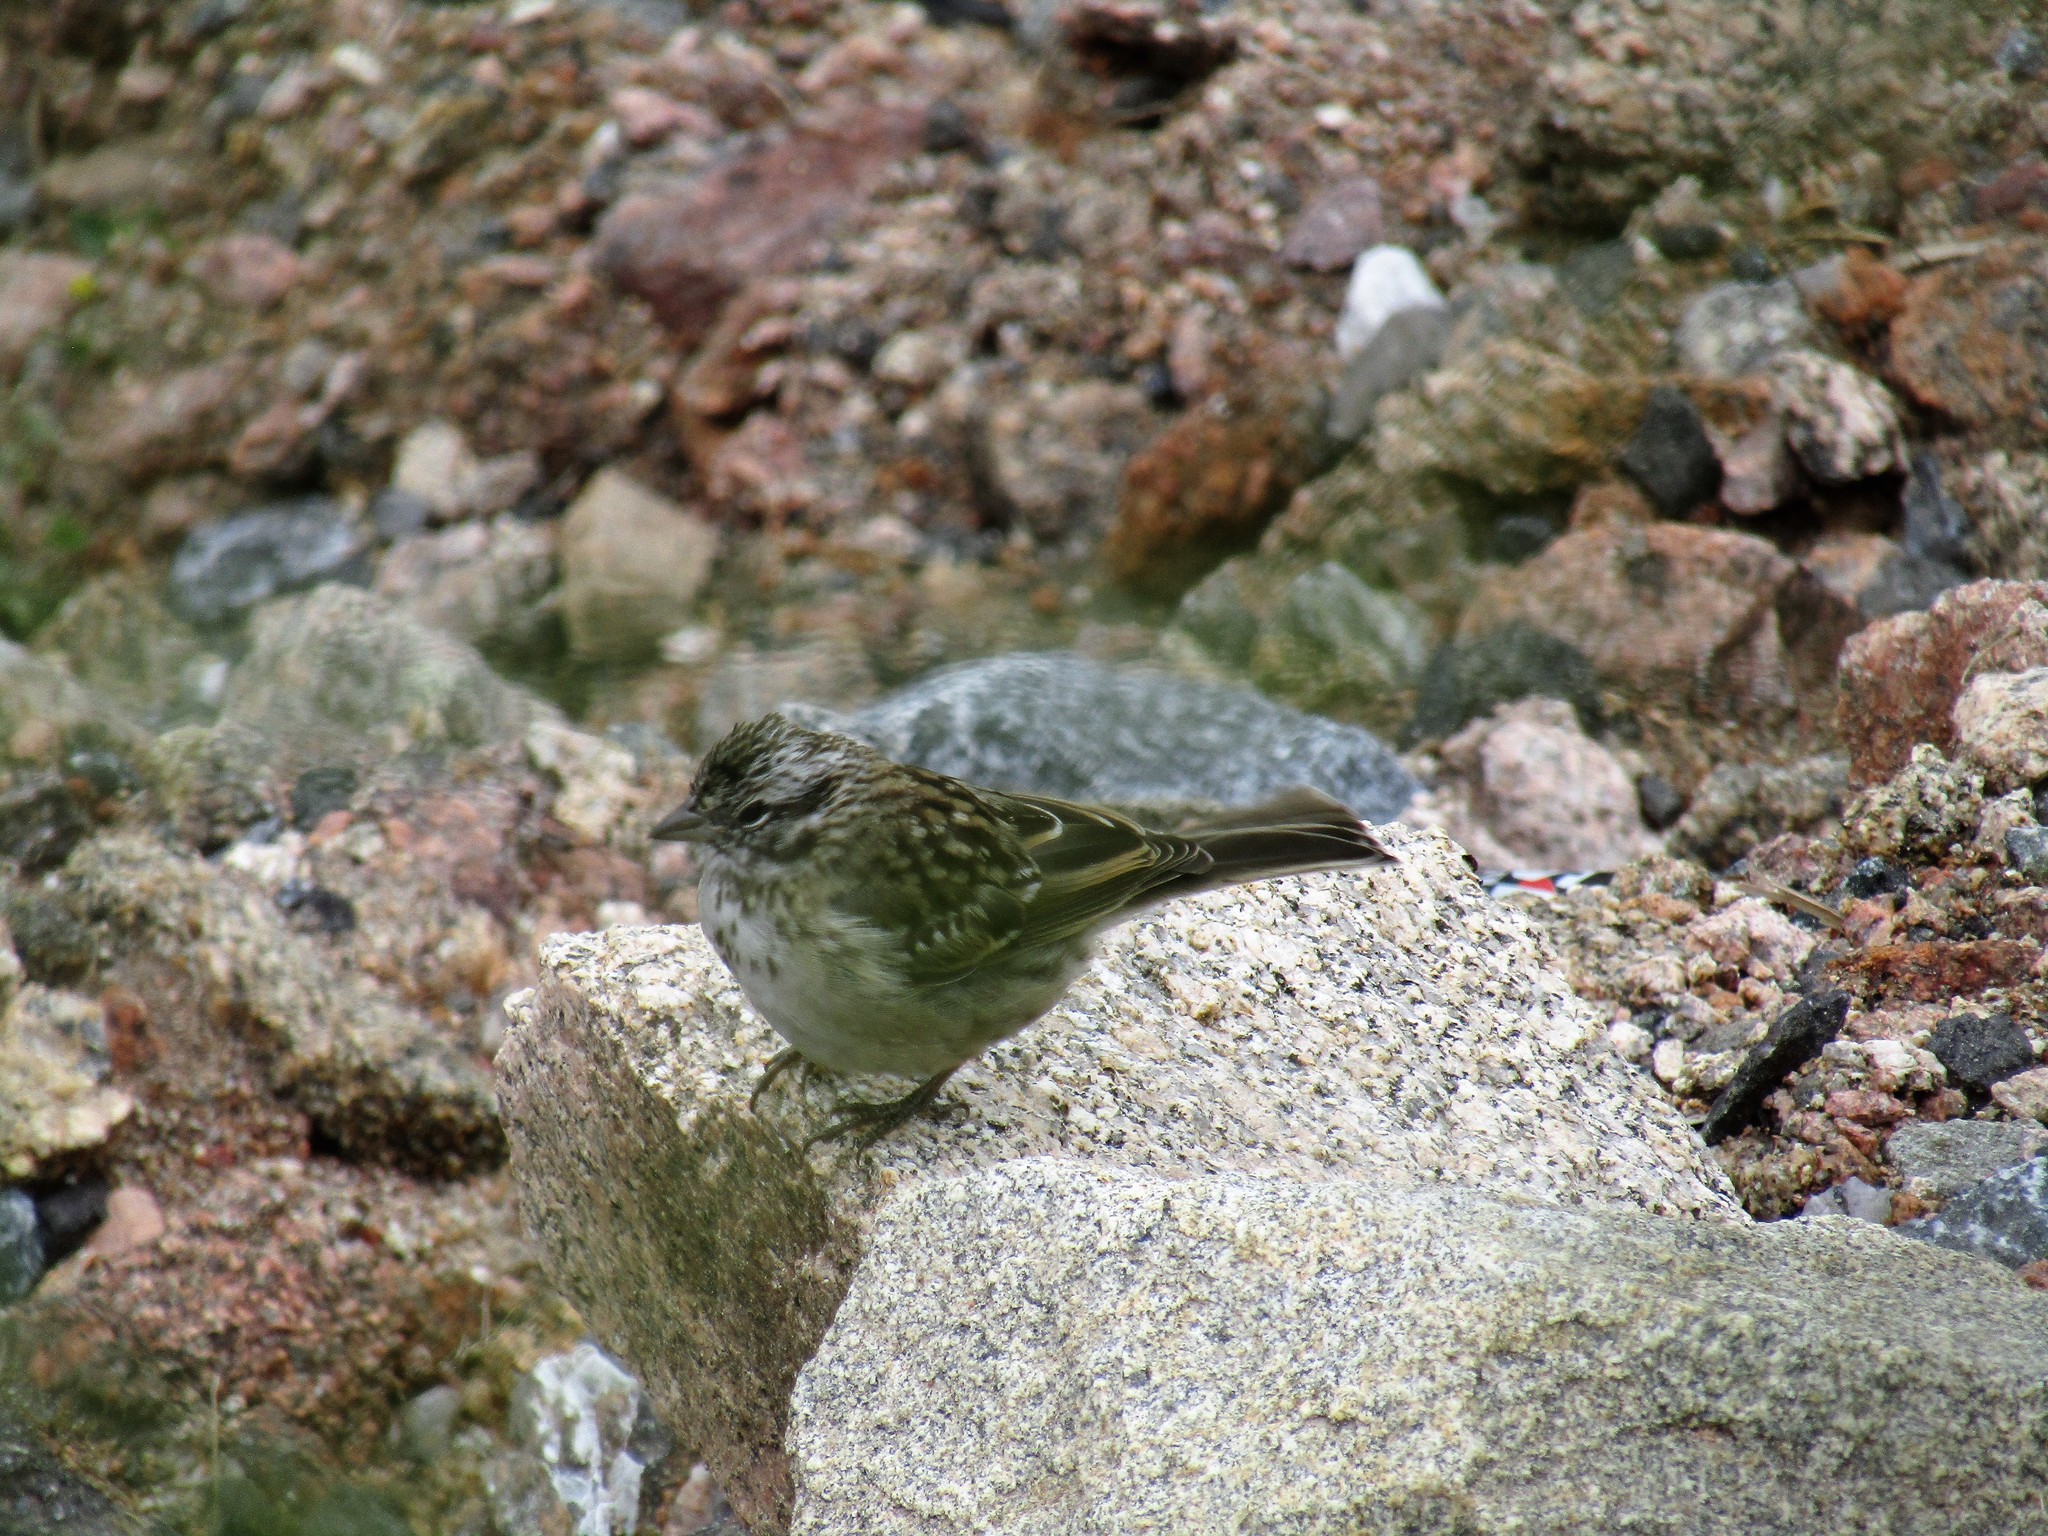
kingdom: Animalia
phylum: Chordata
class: Aves
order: Passeriformes
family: Passerellidae
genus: Zonotrichia
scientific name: Zonotrichia capensis
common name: Rufous-collared sparrow
